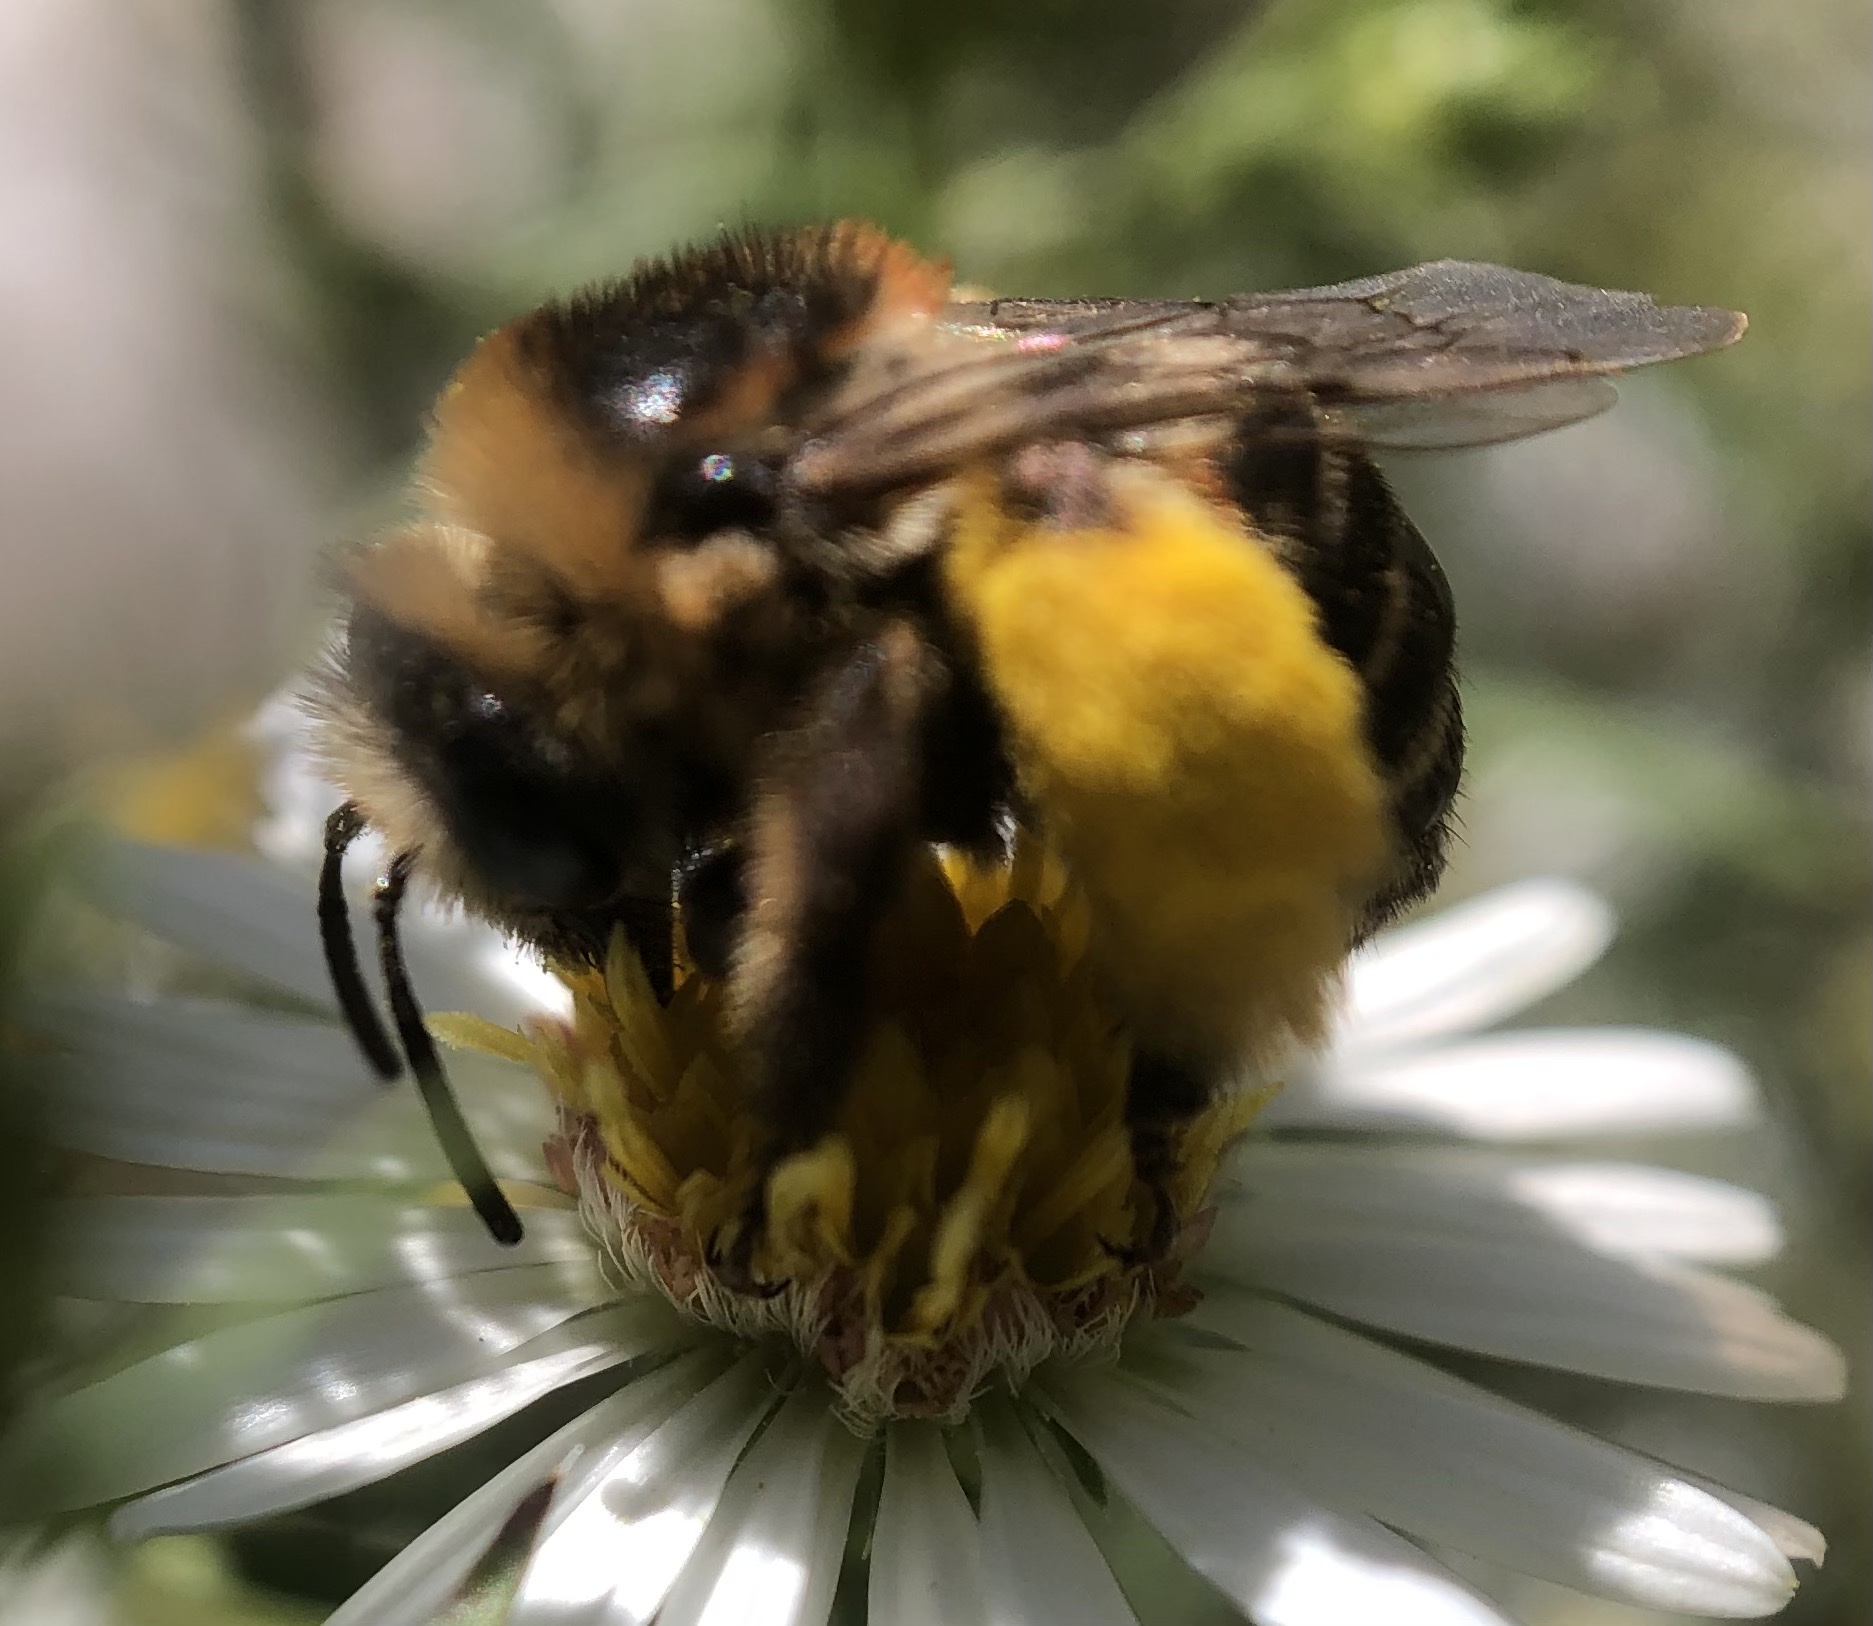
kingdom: Animalia
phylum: Arthropoda
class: Insecta
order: Hymenoptera
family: Apidae
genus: Melissodes
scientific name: Melissodes druriellus
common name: Drury's long-horned bee
